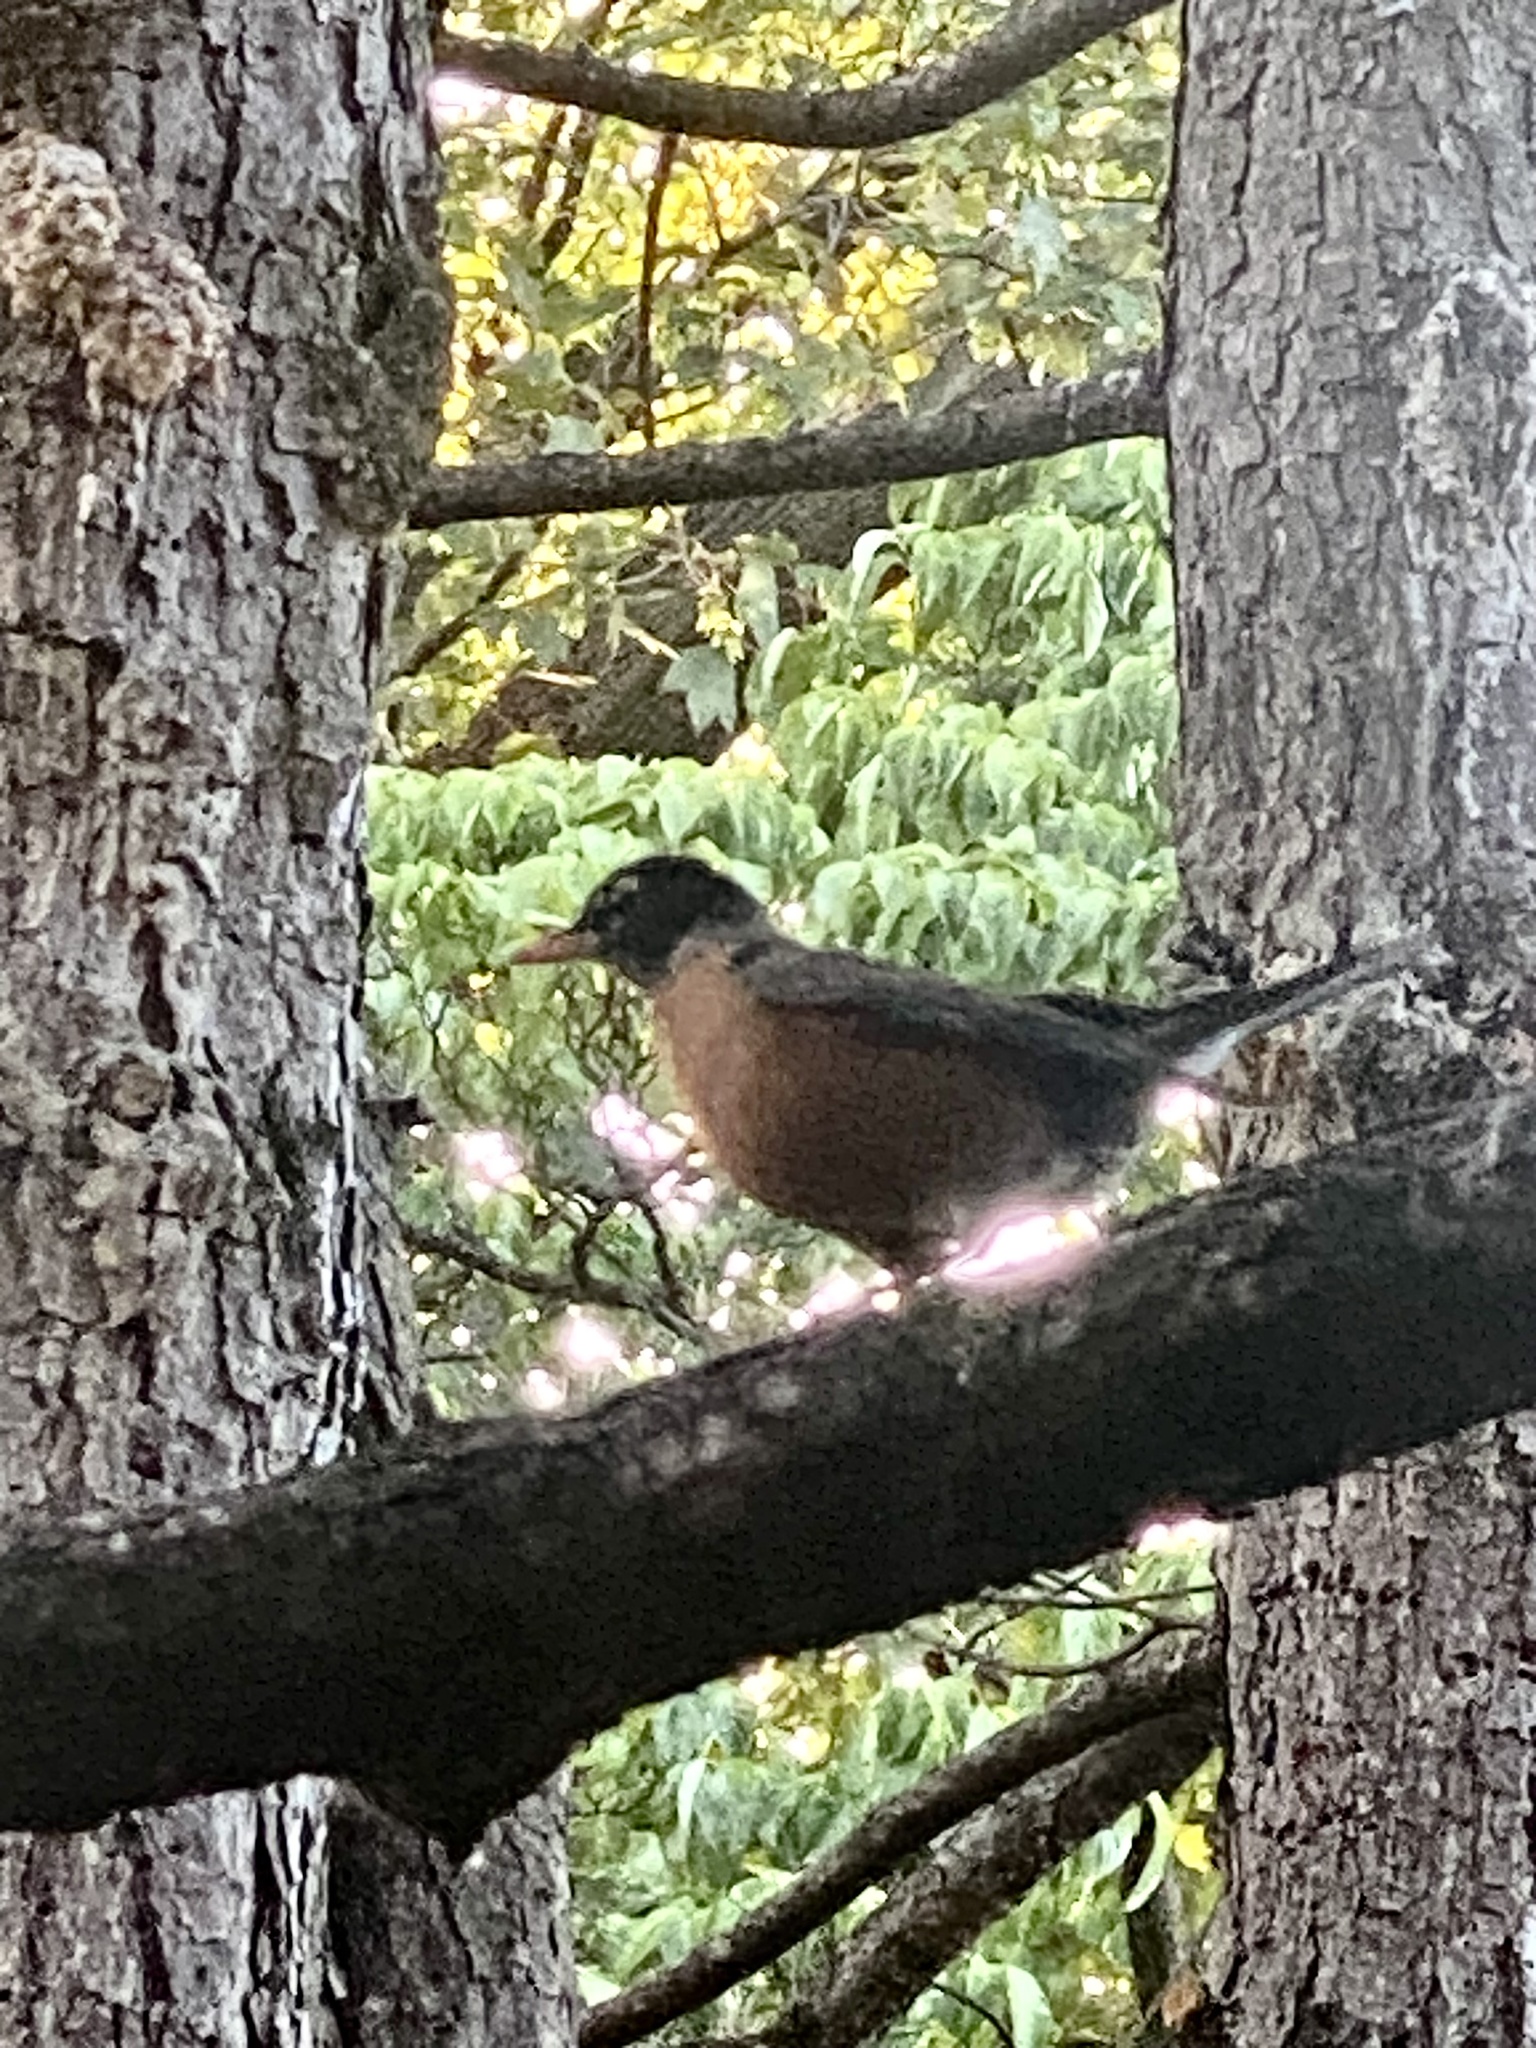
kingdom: Animalia
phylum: Chordata
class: Aves
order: Passeriformes
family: Turdidae
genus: Turdus
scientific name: Turdus migratorius
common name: American robin
